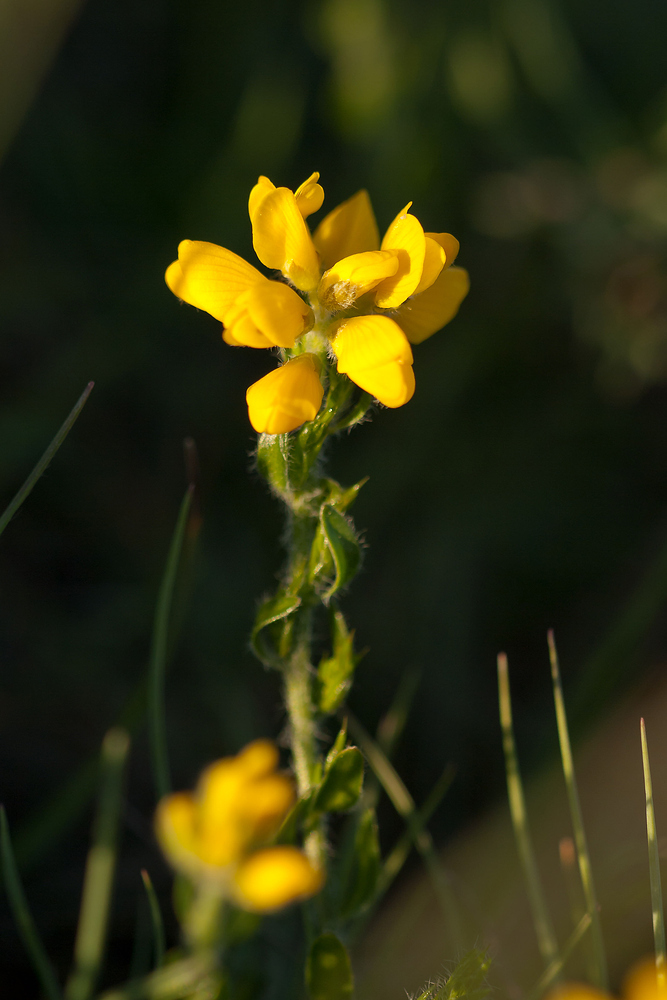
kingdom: Plantae
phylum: Tracheophyta
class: Magnoliopsida
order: Fabales
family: Fabaceae
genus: Genista
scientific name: Genista hispanica
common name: Spanish gorse
